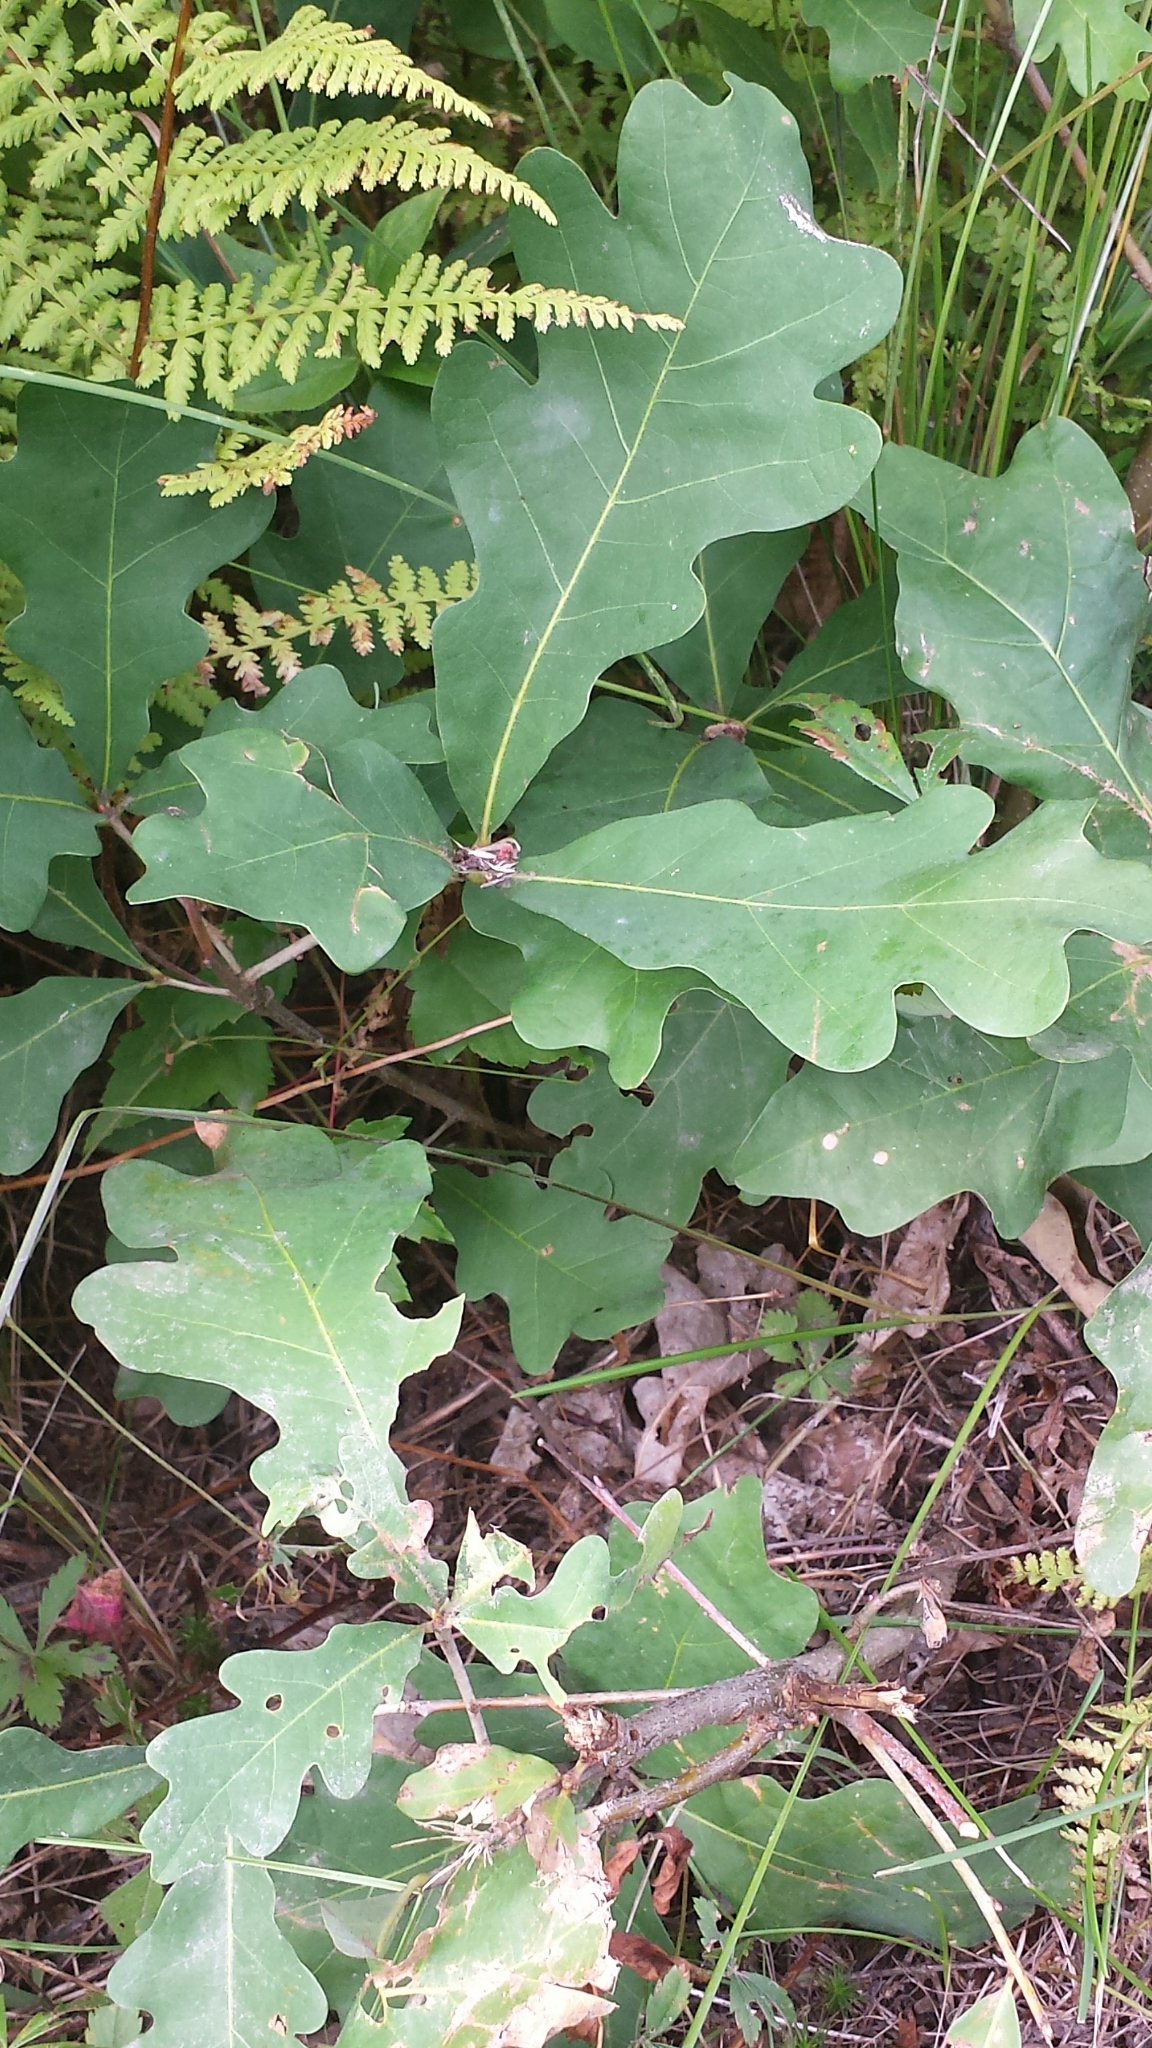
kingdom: Plantae
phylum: Tracheophyta
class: Magnoliopsida
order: Fagales
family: Fagaceae
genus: Quercus
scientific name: Quercus alba
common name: White oak
